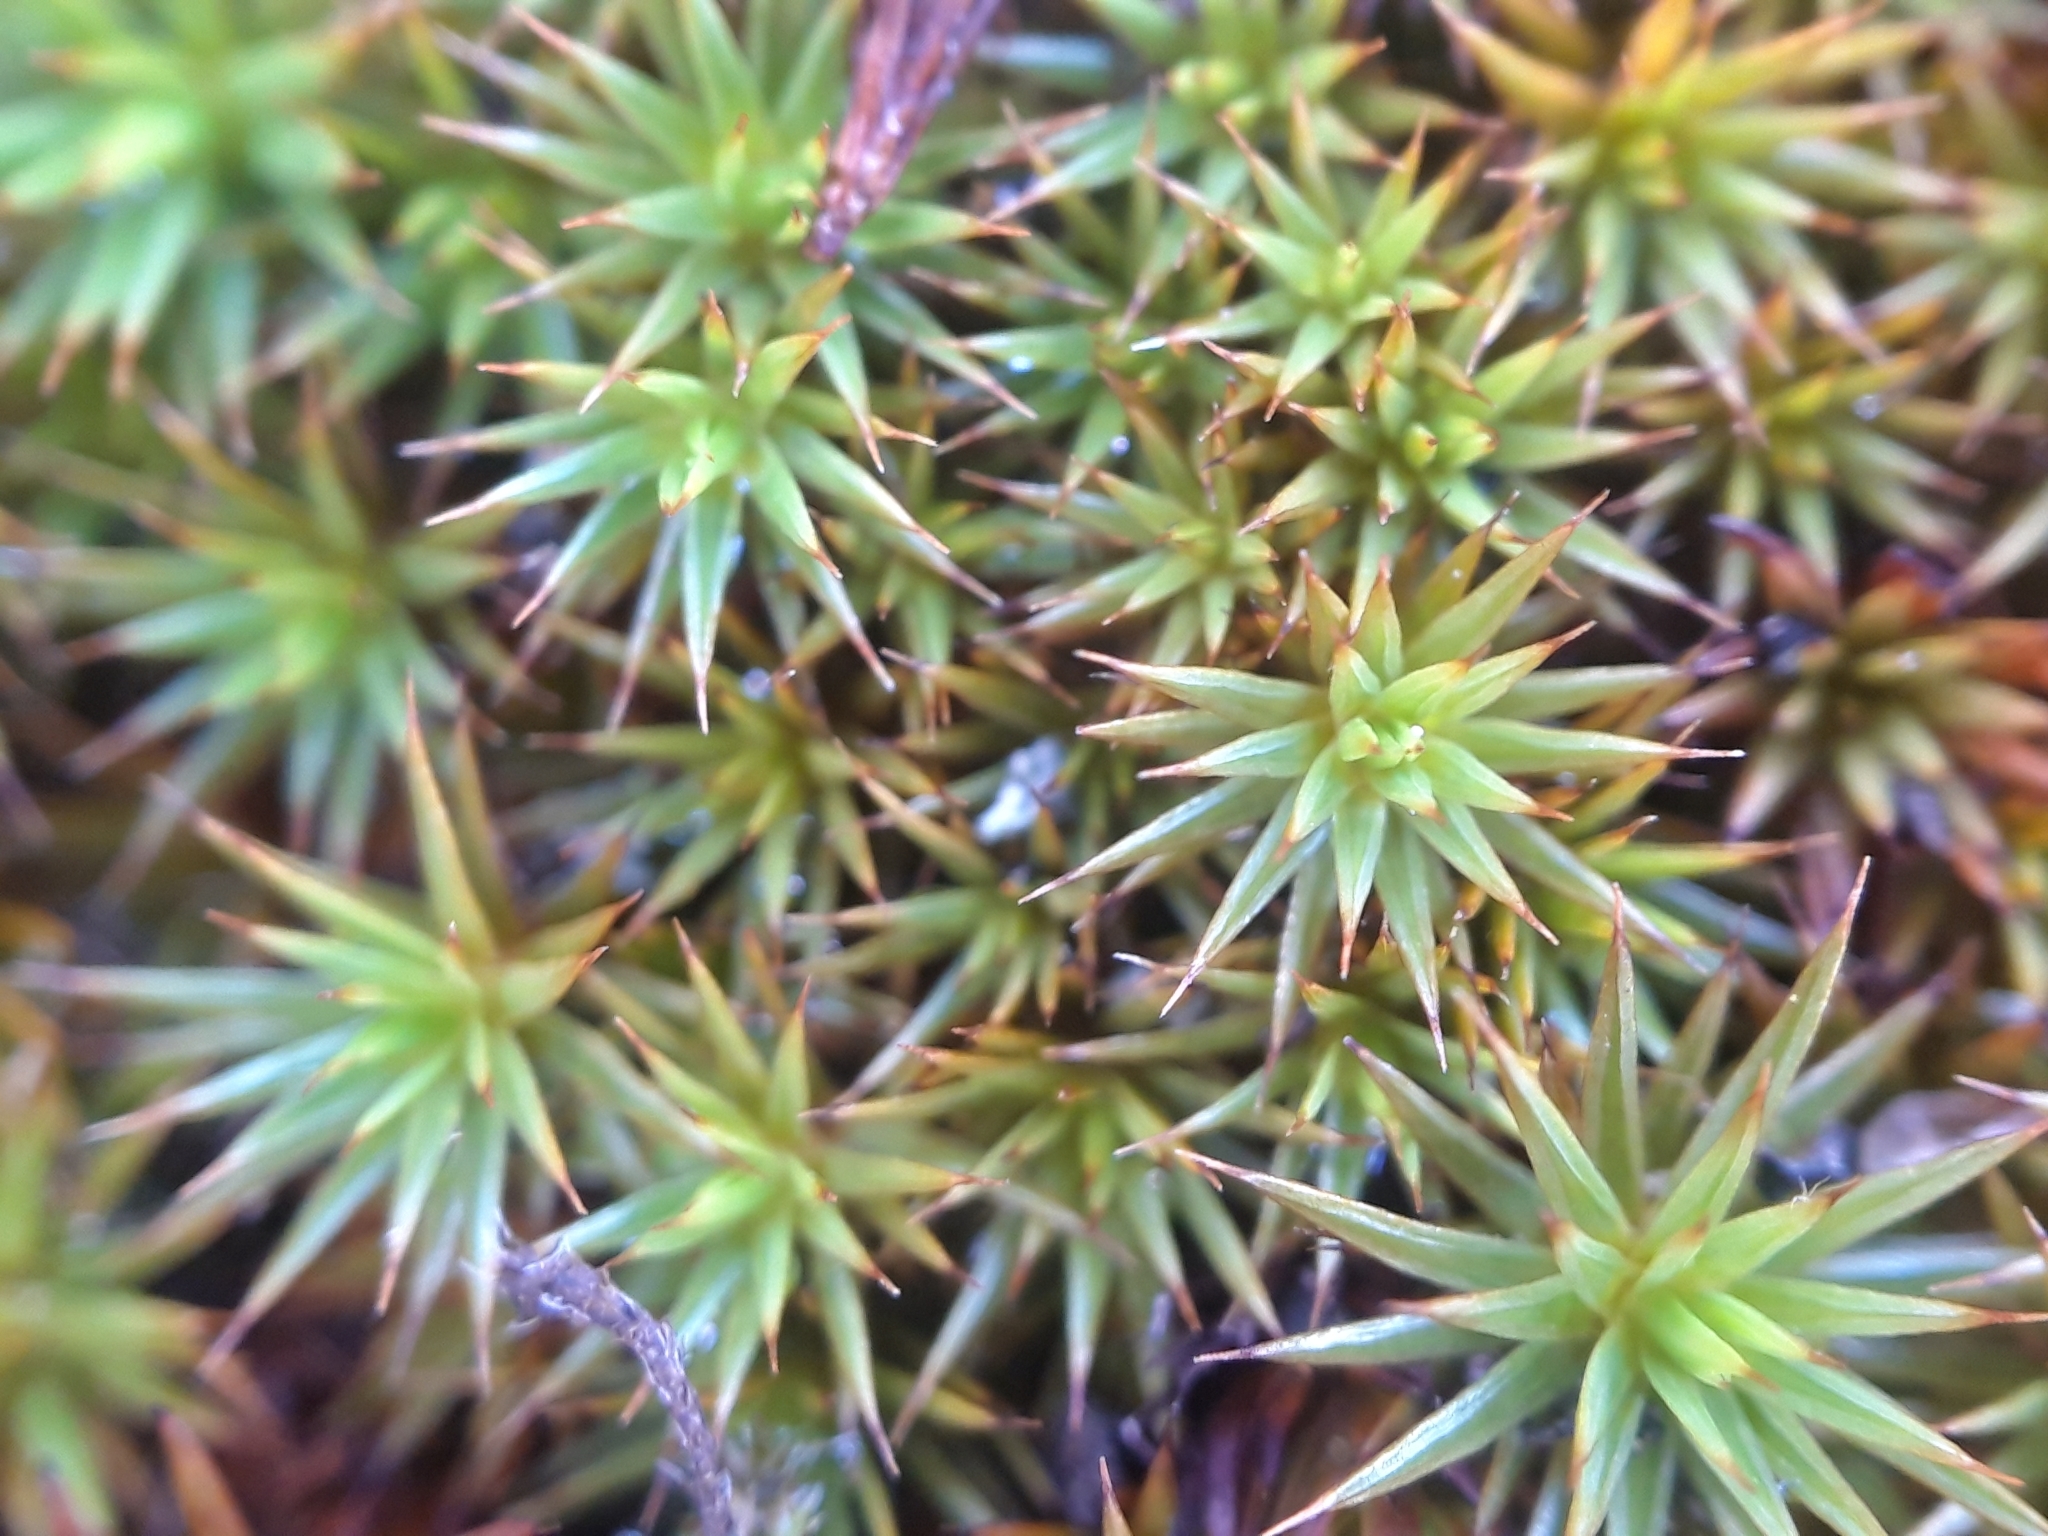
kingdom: Plantae
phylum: Bryophyta
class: Polytrichopsida
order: Polytrichales
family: Polytrichaceae
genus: Polytrichum
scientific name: Polytrichum juniperinum
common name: Juniper haircap moss
